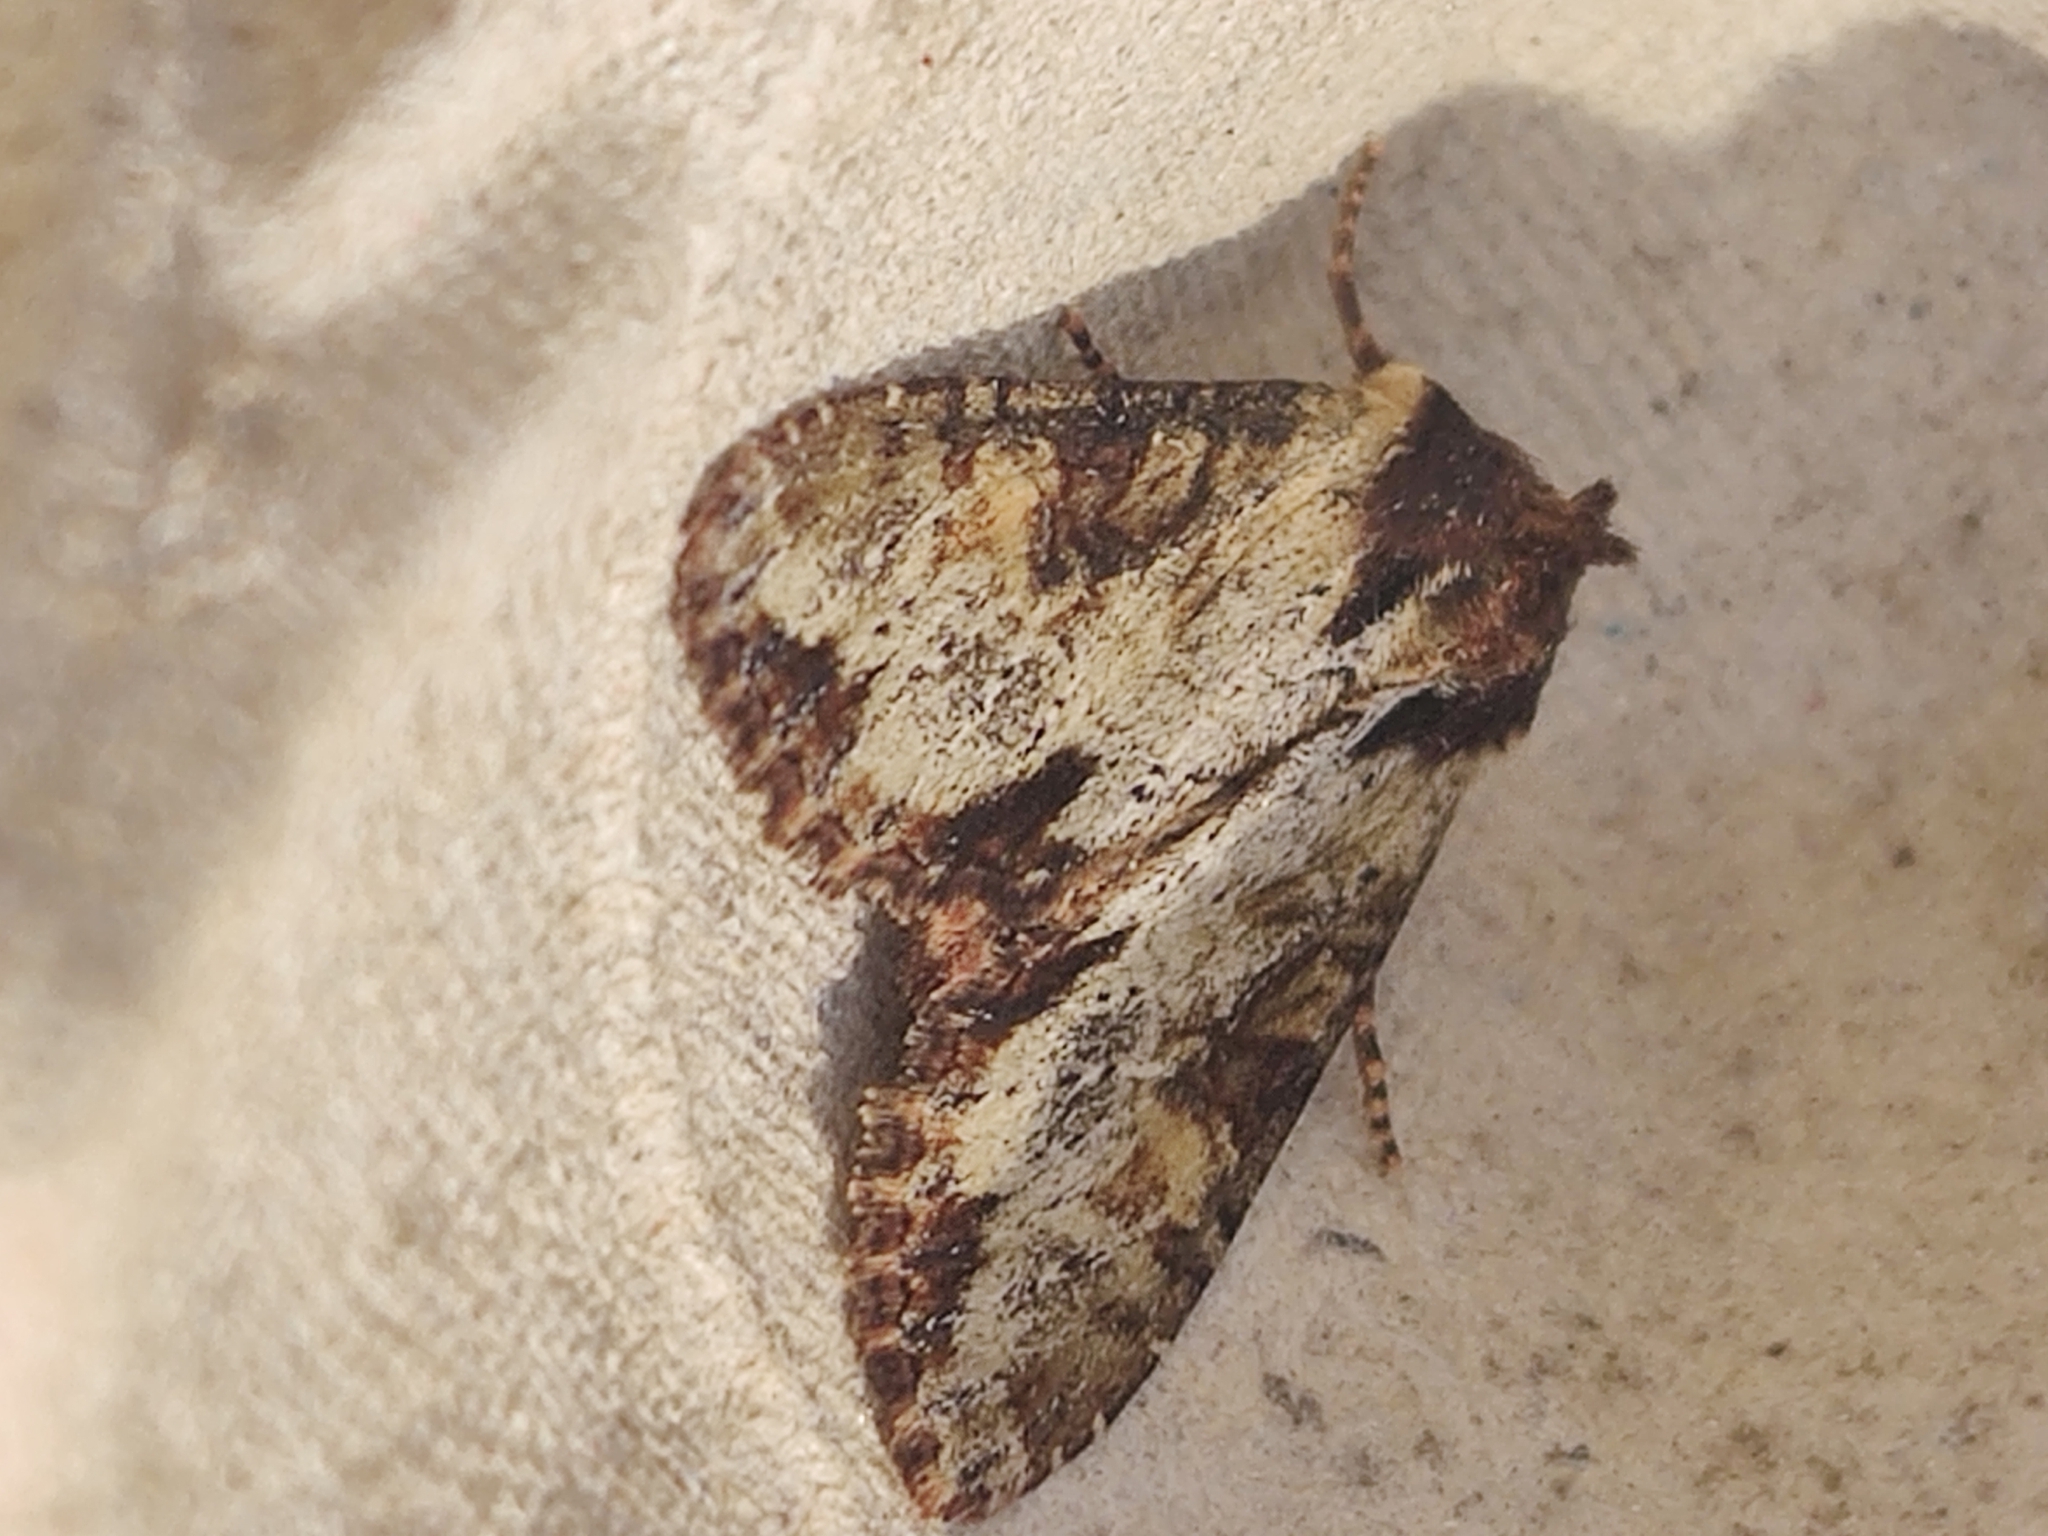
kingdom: Animalia
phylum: Arthropoda
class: Insecta
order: Lepidoptera
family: Noctuidae
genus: Apamea
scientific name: Apamea crenata
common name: Clouded-bordered brindle
